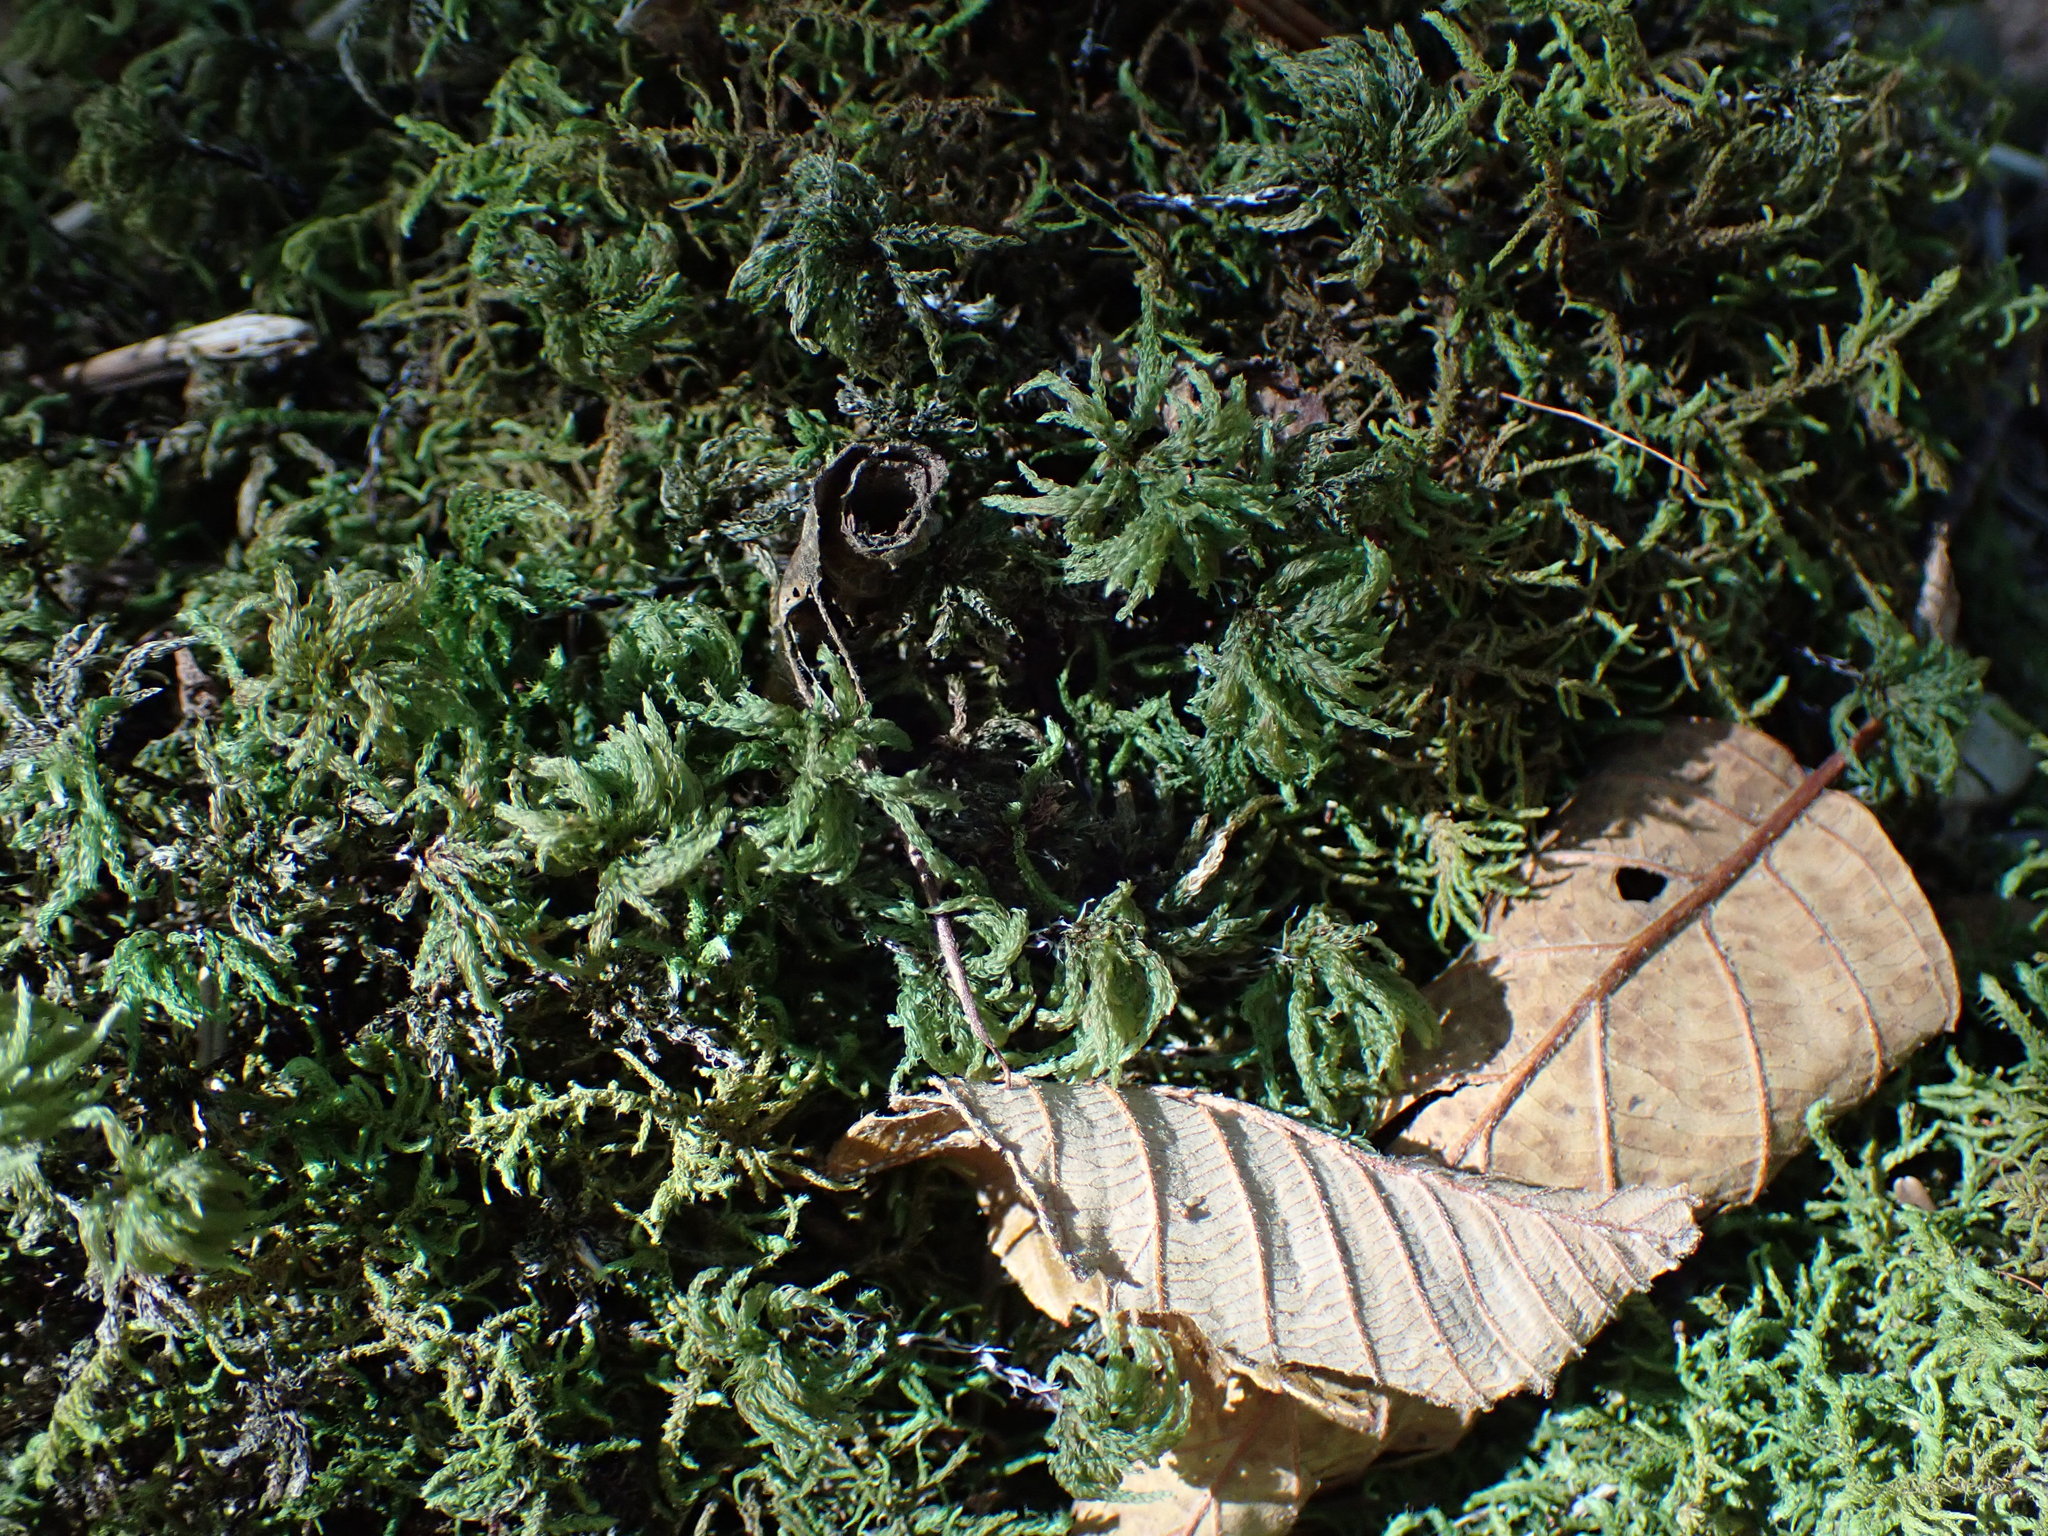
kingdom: Plantae
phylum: Bryophyta
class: Bryopsida
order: Bryales
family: Mniaceae
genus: Leucolepis
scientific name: Leucolepis acanthoneura
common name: Leucolepis umbrella moss
